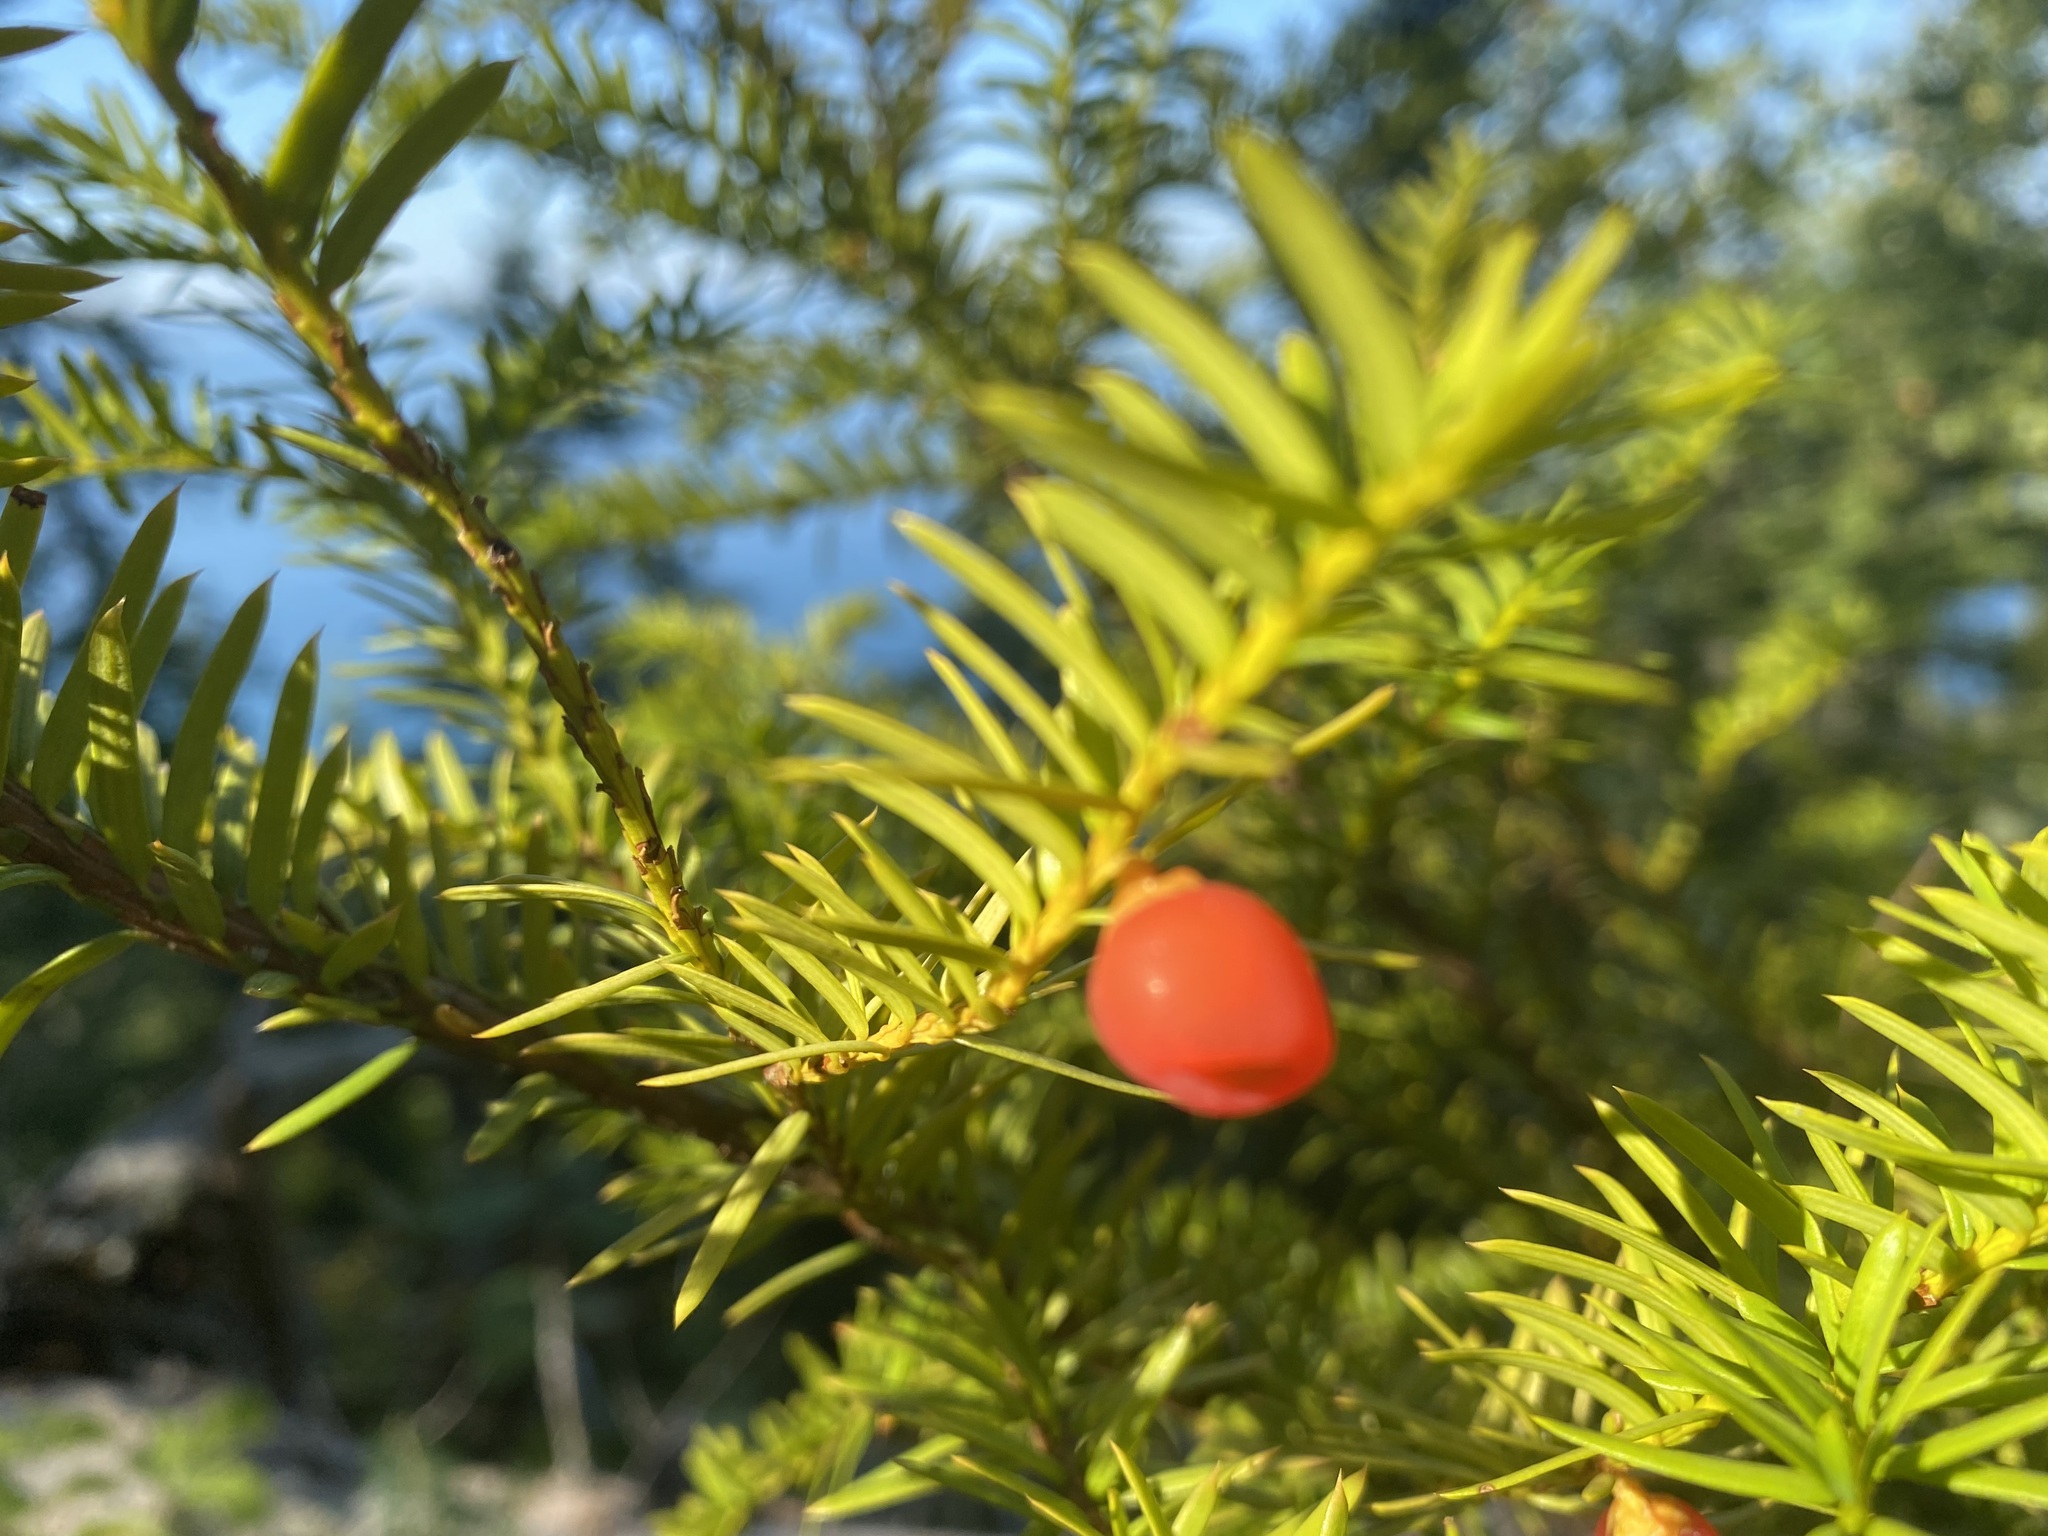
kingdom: Plantae
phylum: Tracheophyta
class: Pinopsida
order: Pinales
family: Taxaceae
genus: Taxus
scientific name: Taxus canadensis
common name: American yew
